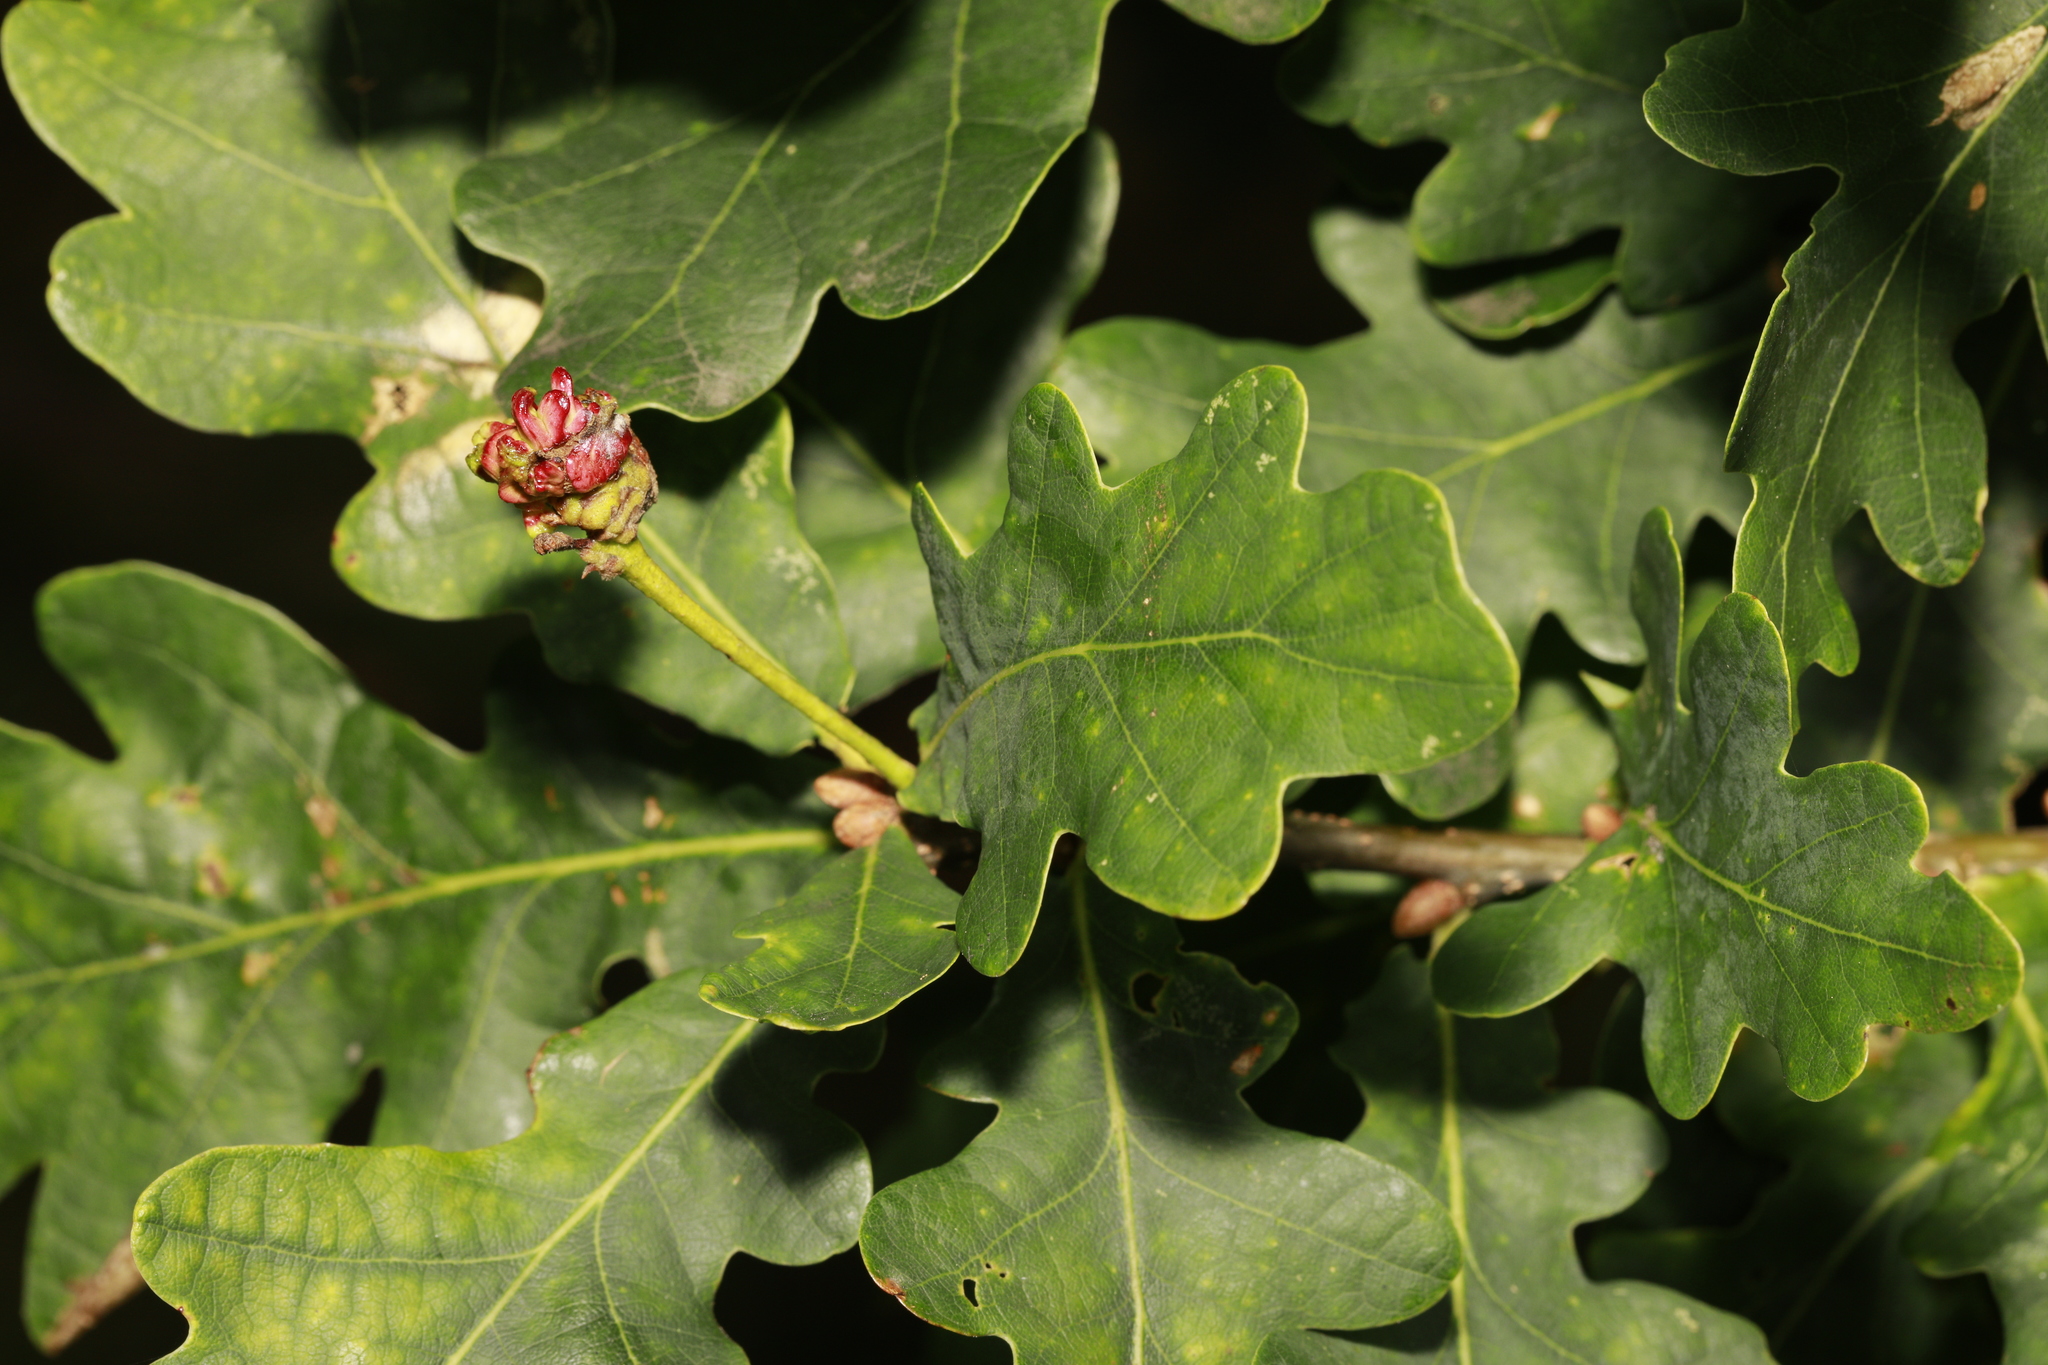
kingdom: Animalia
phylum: Arthropoda
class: Insecta
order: Hymenoptera
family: Cynipidae
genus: Andricus
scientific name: Andricus quercuscalicis
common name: Knopper gall
